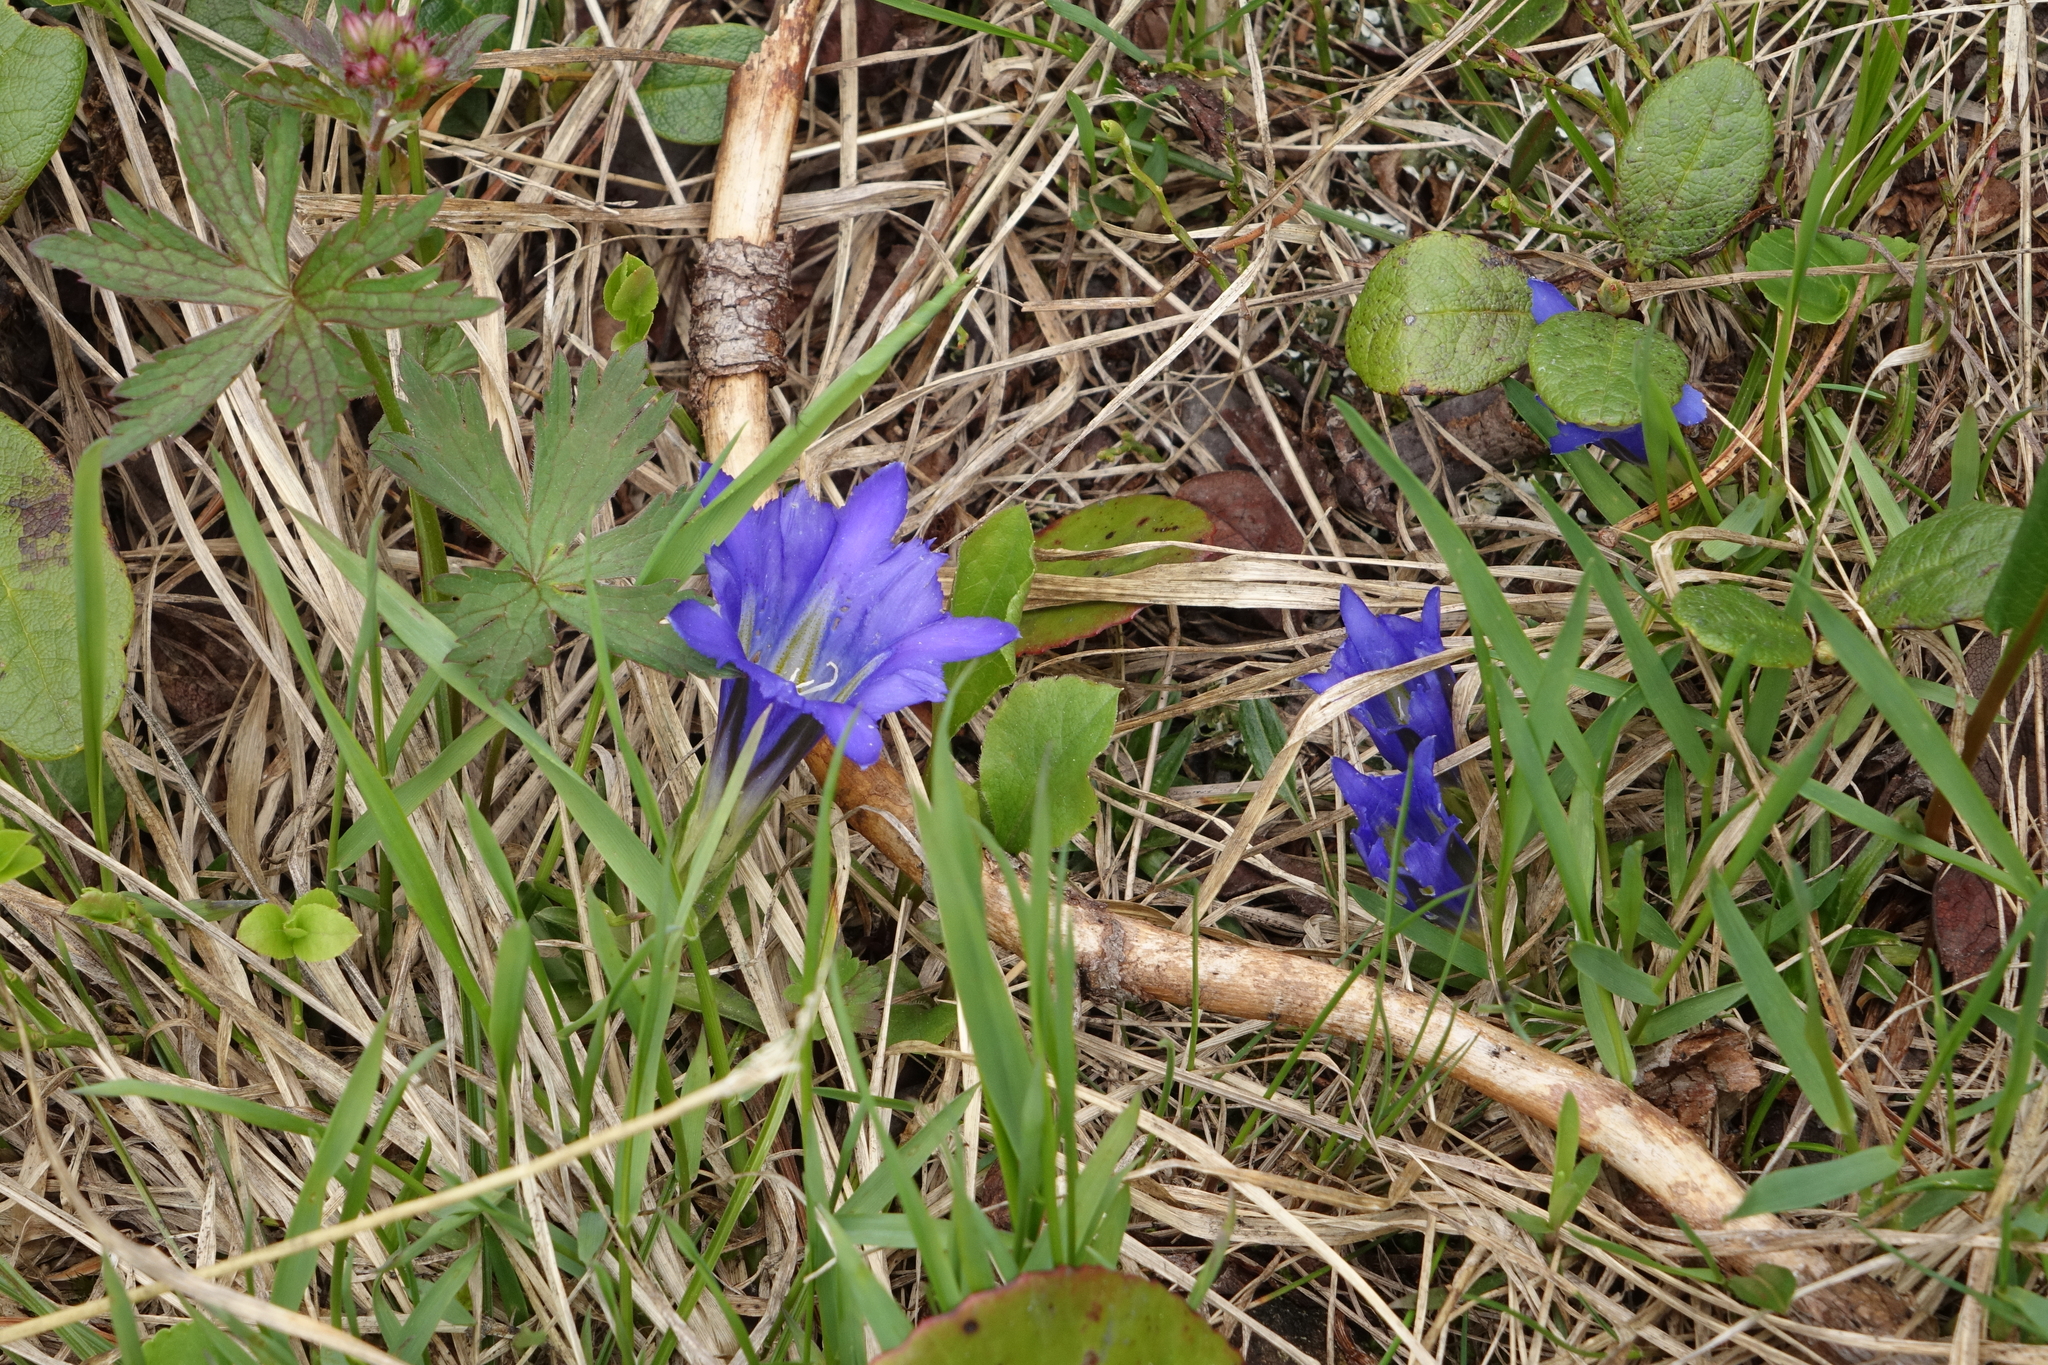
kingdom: Plantae
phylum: Tracheophyta
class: Magnoliopsida
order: Gentianales
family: Gentianaceae
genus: Gentiana
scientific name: Gentiana grandiflora
